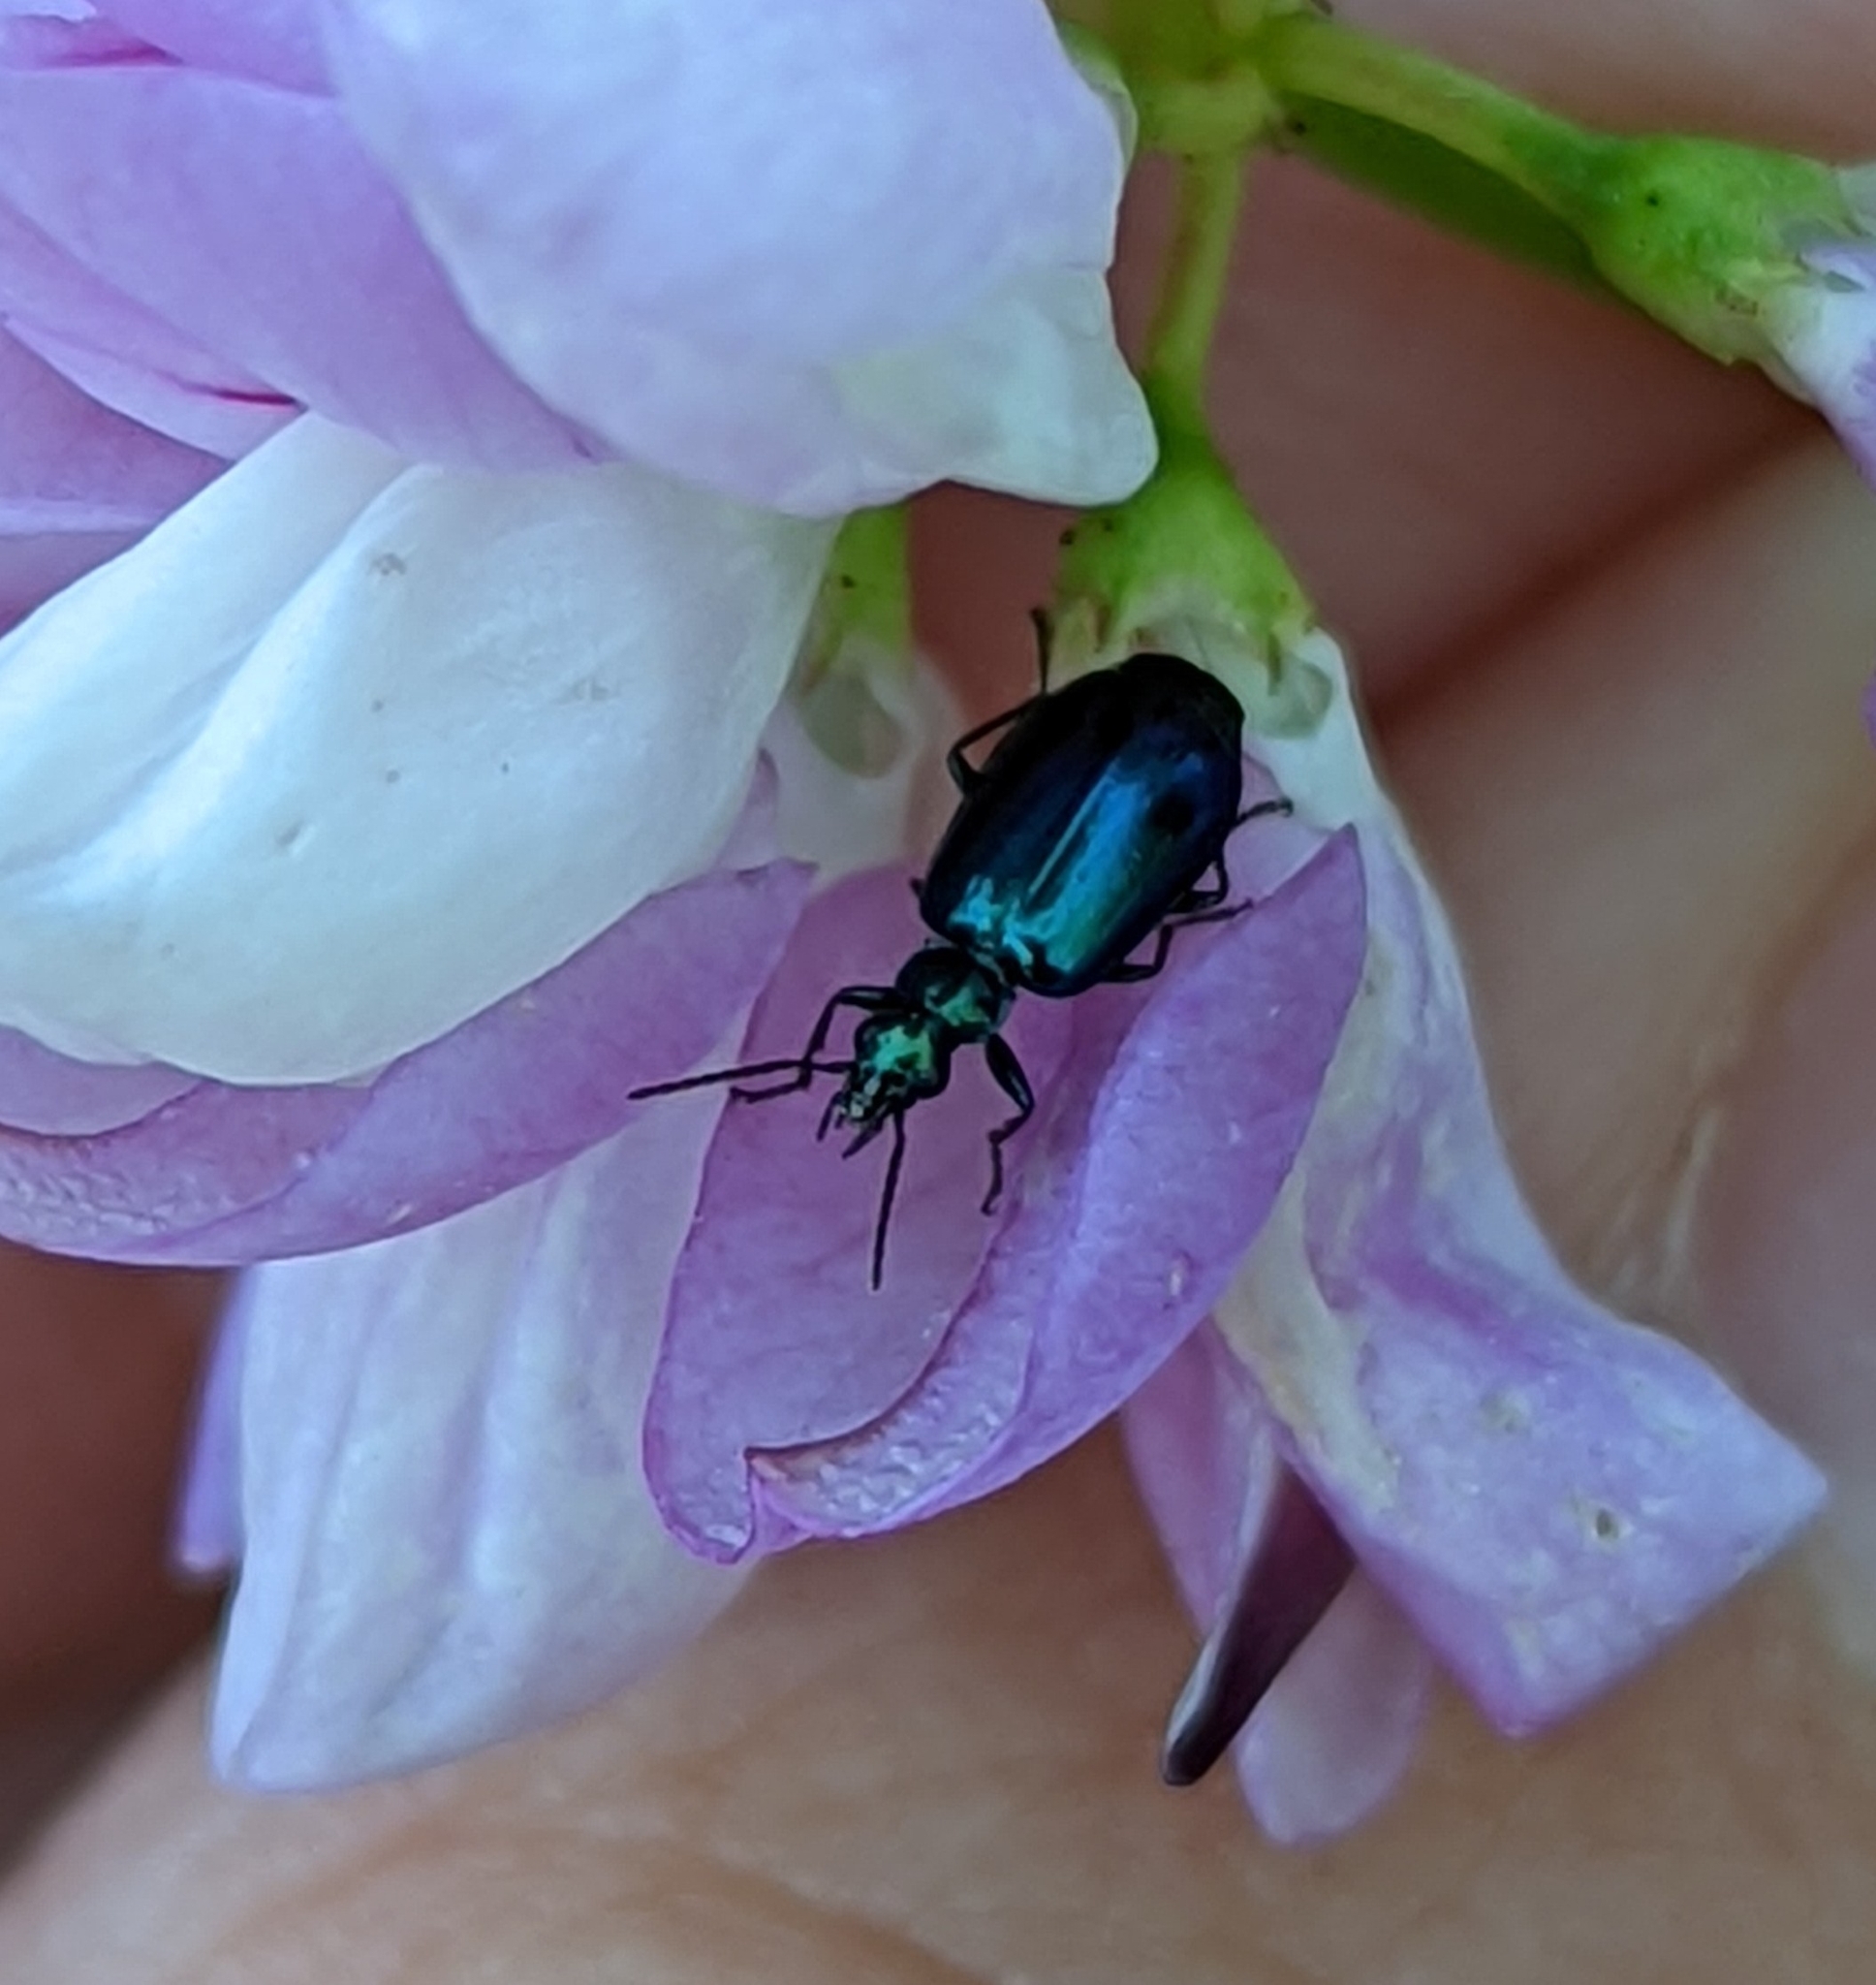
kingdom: Animalia
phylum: Arthropoda
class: Insecta
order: Coleoptera
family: Carabidae
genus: Lebia
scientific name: Lebia viridis
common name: Flower lebia beetle
